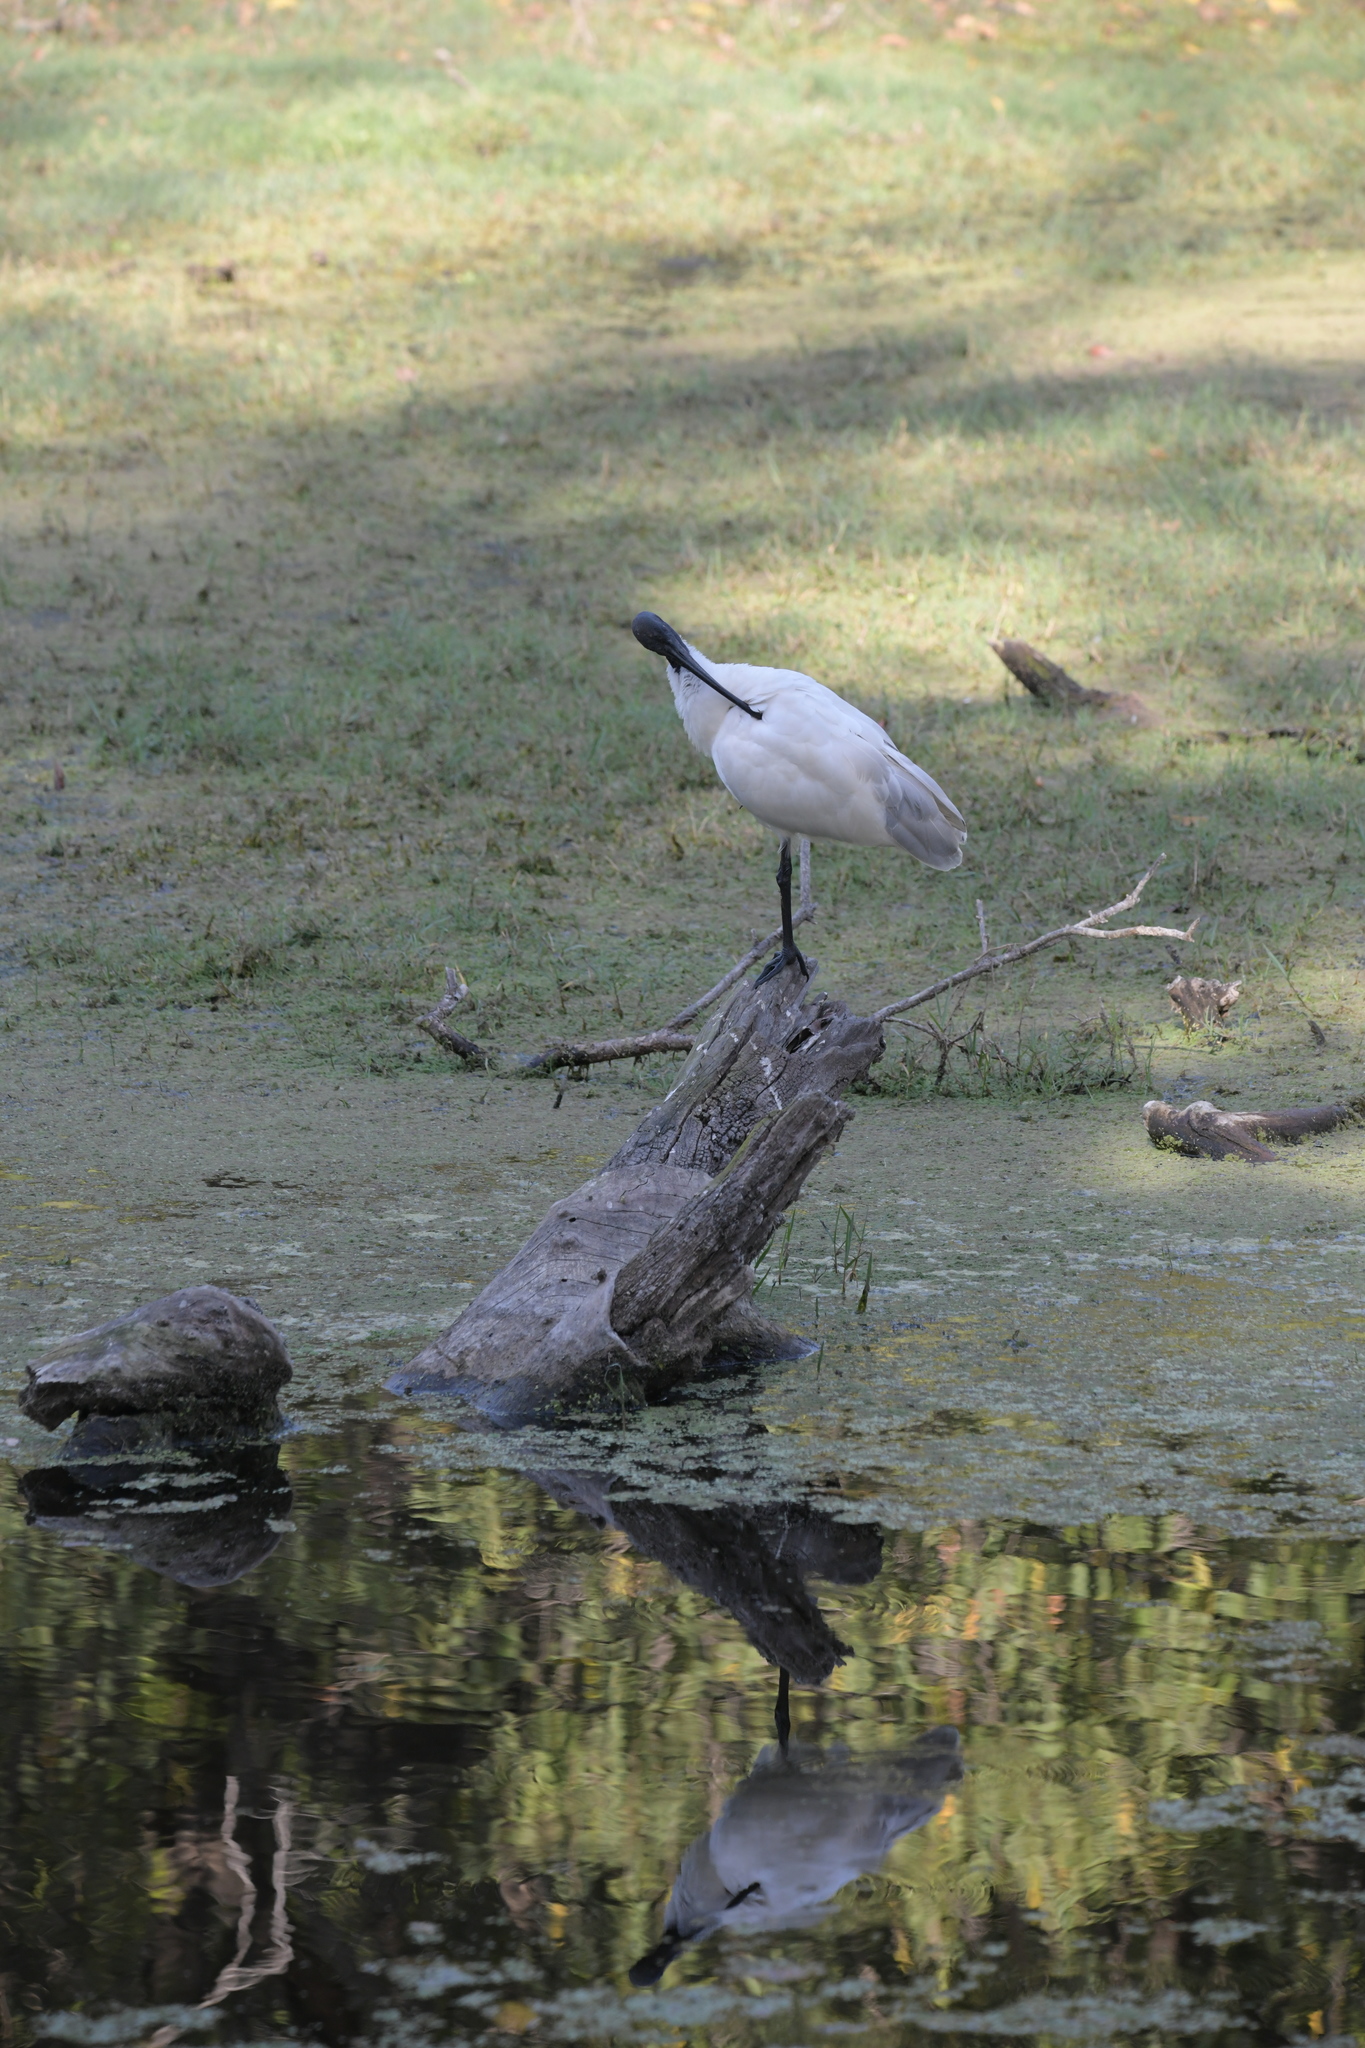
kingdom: Animalia
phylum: Chordata
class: Aves
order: Pelecaniformes
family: Threskiornithidae
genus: Threskiornis
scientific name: Threskiornis melanocephalus
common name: Black-headed ibis
